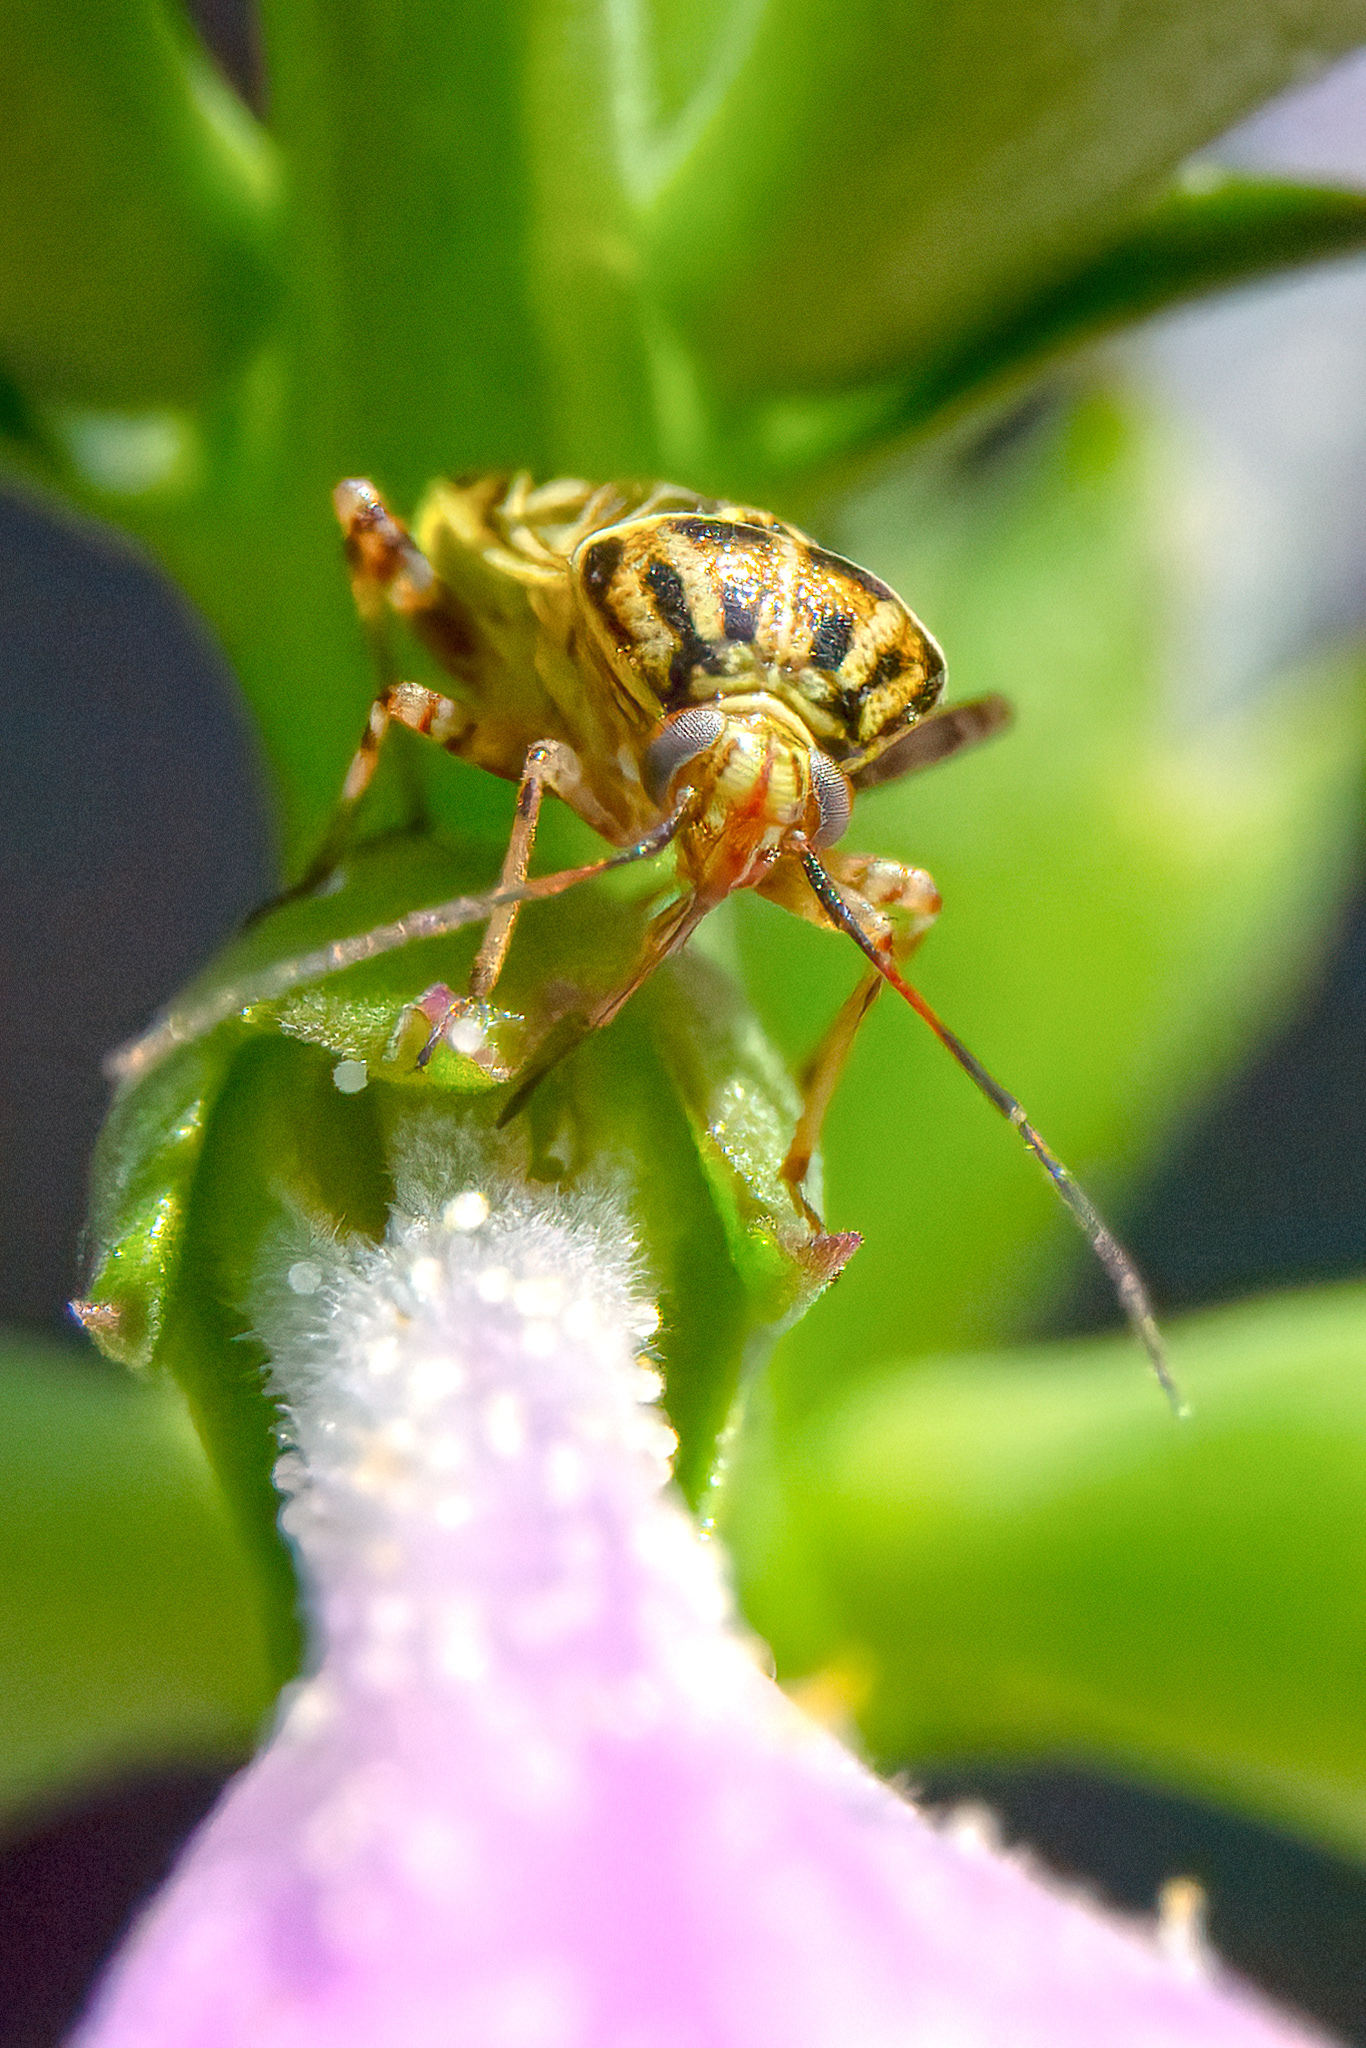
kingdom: Animalia
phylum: Arthropoda
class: Insecta
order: Hemiptera
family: Miridae
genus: Lygus
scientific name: Lygus lineolaris
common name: North american tarnished plant bug
